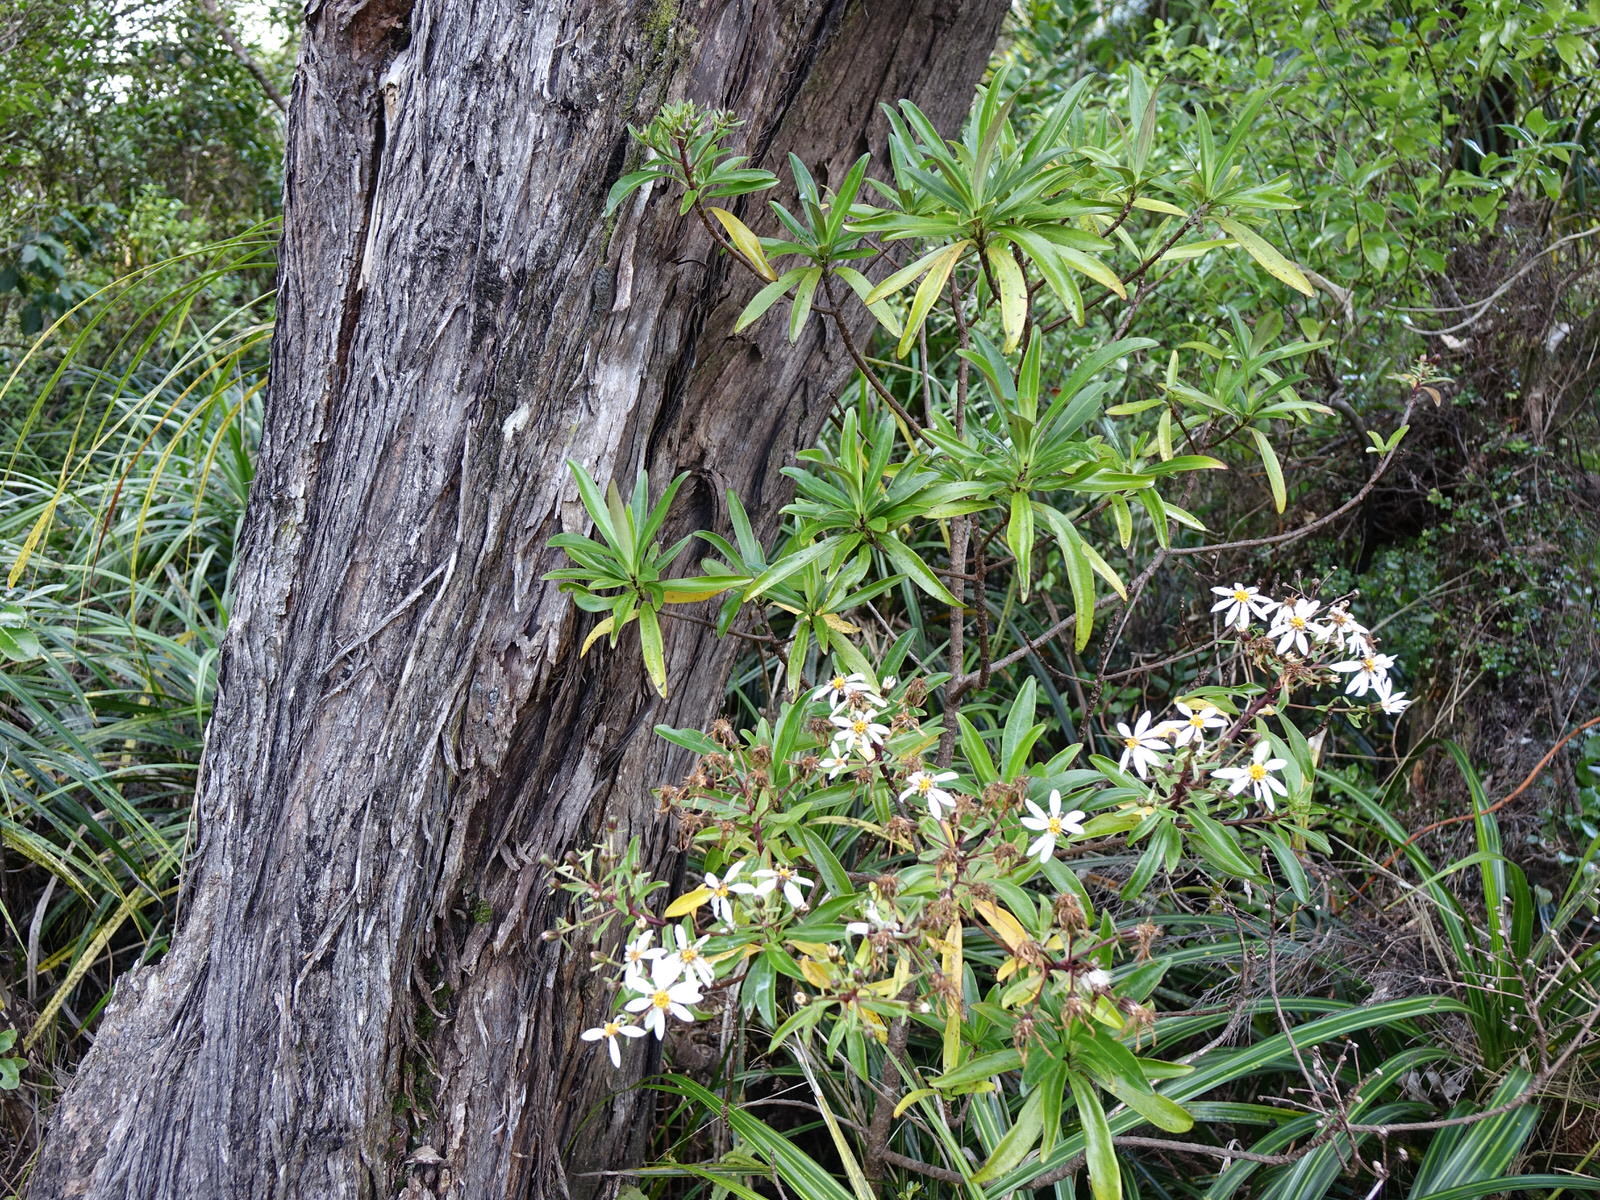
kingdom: Plantae
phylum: Tracheophyta
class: Magnoliopsida
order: Asterales
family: Asteraceae
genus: Brachyglottis
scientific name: Brachyglottis kirkii
